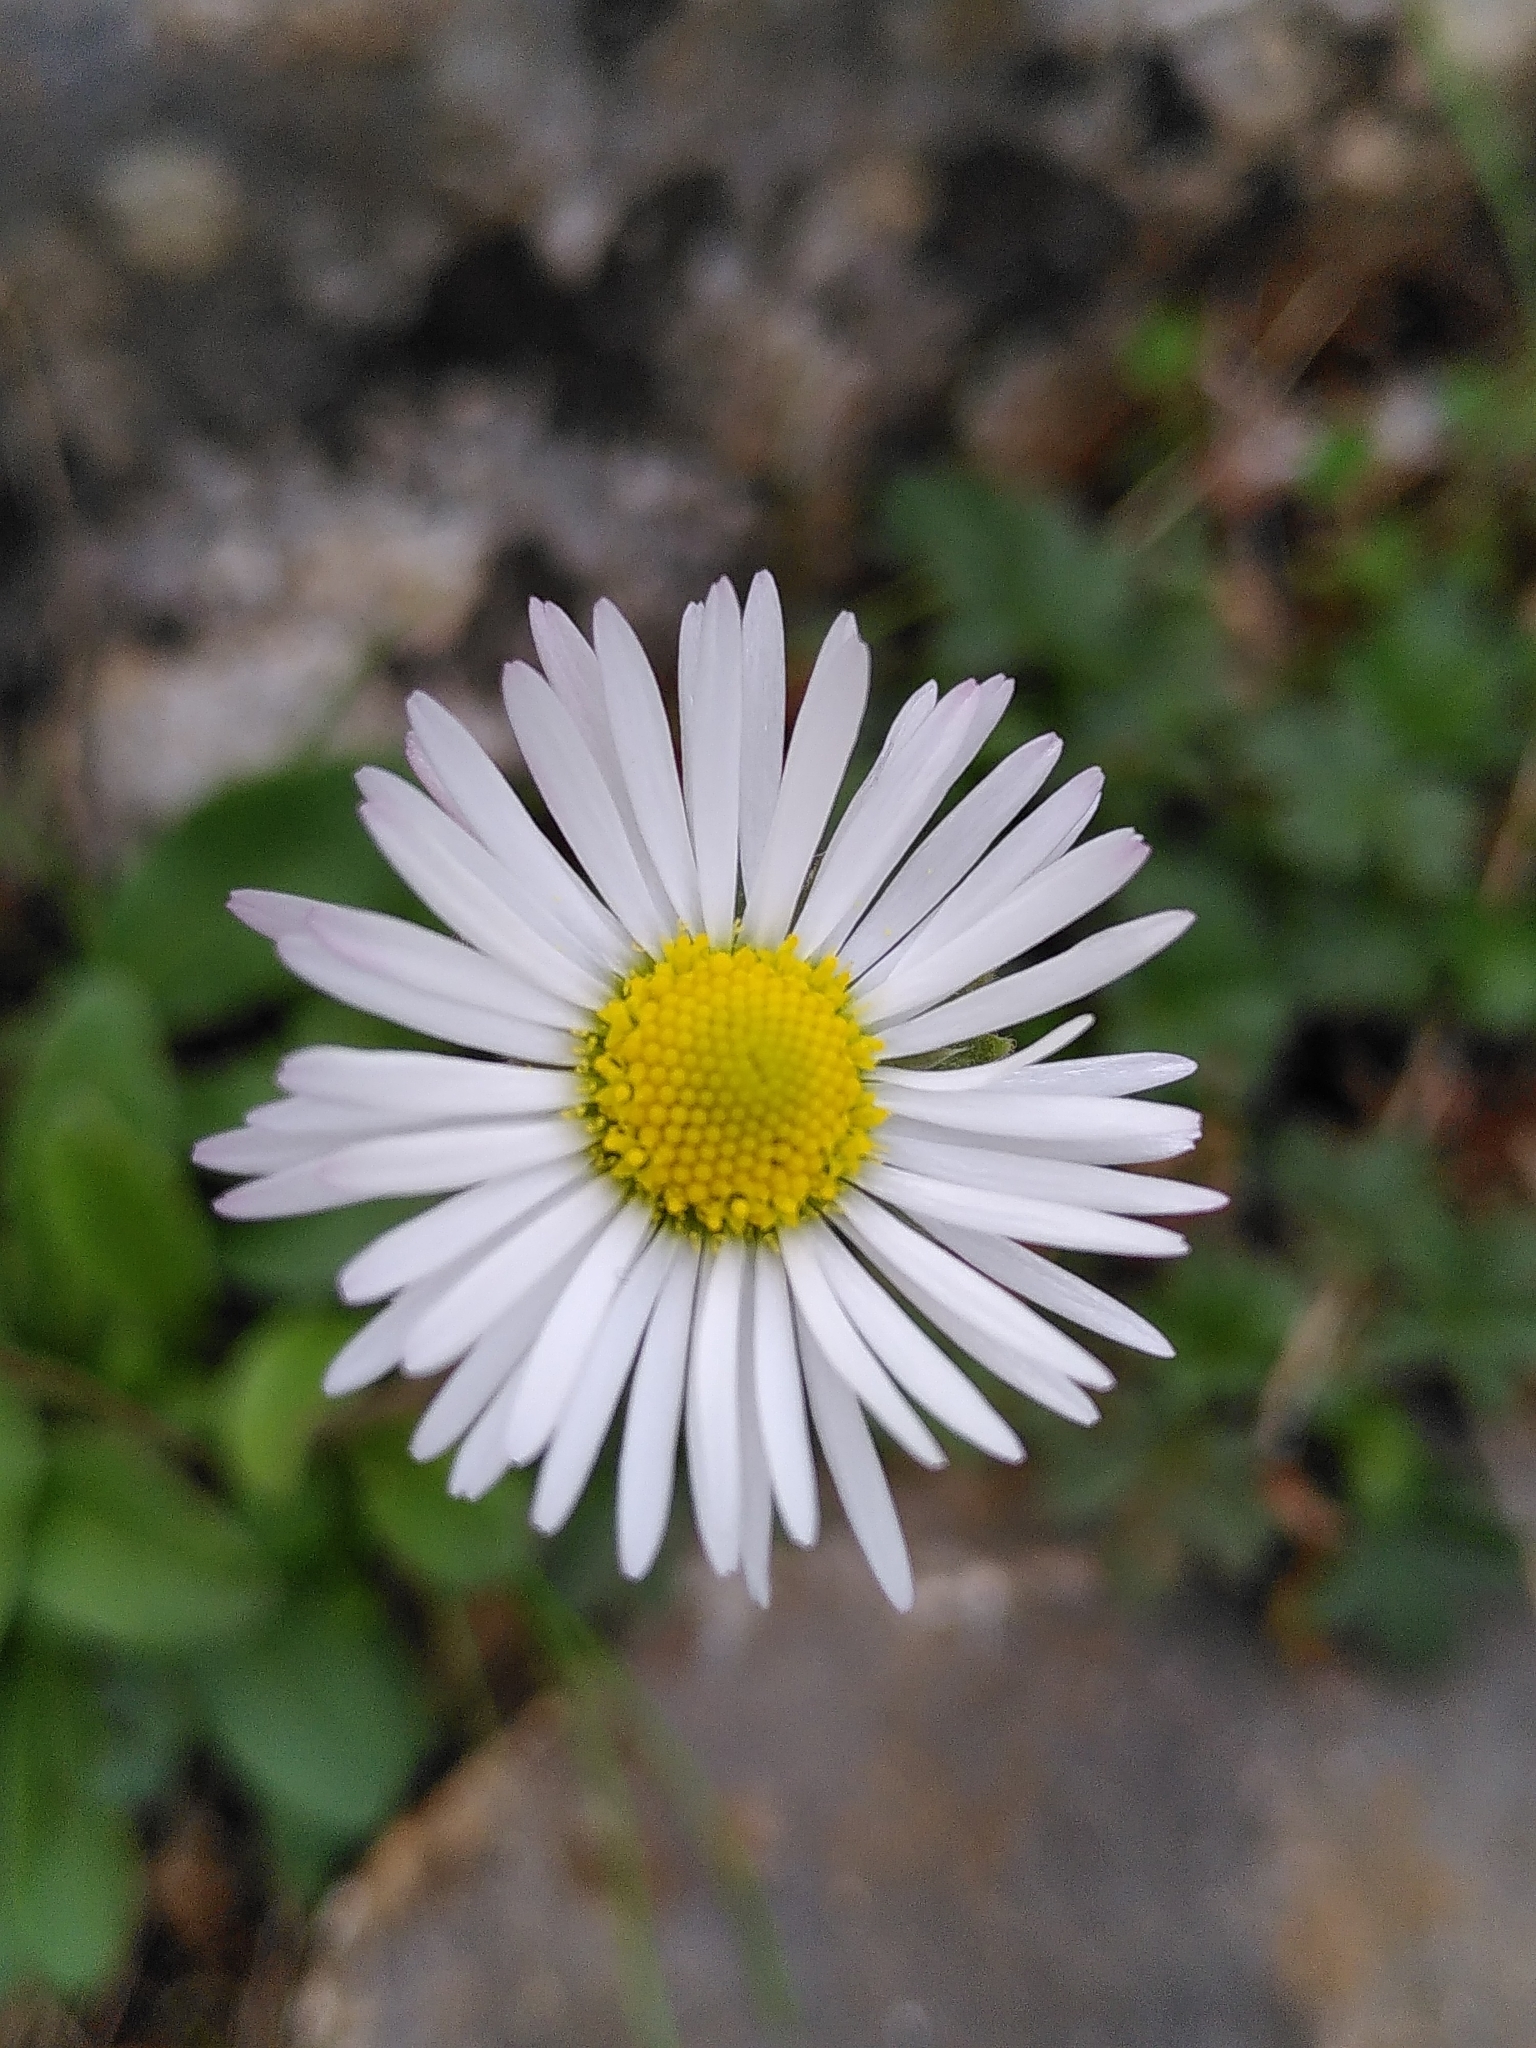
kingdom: Plantae
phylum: Tracheophyta
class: Magnoliopsida
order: Asterales
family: Asteraceae
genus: Bellis
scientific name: Bellis sylvestris
